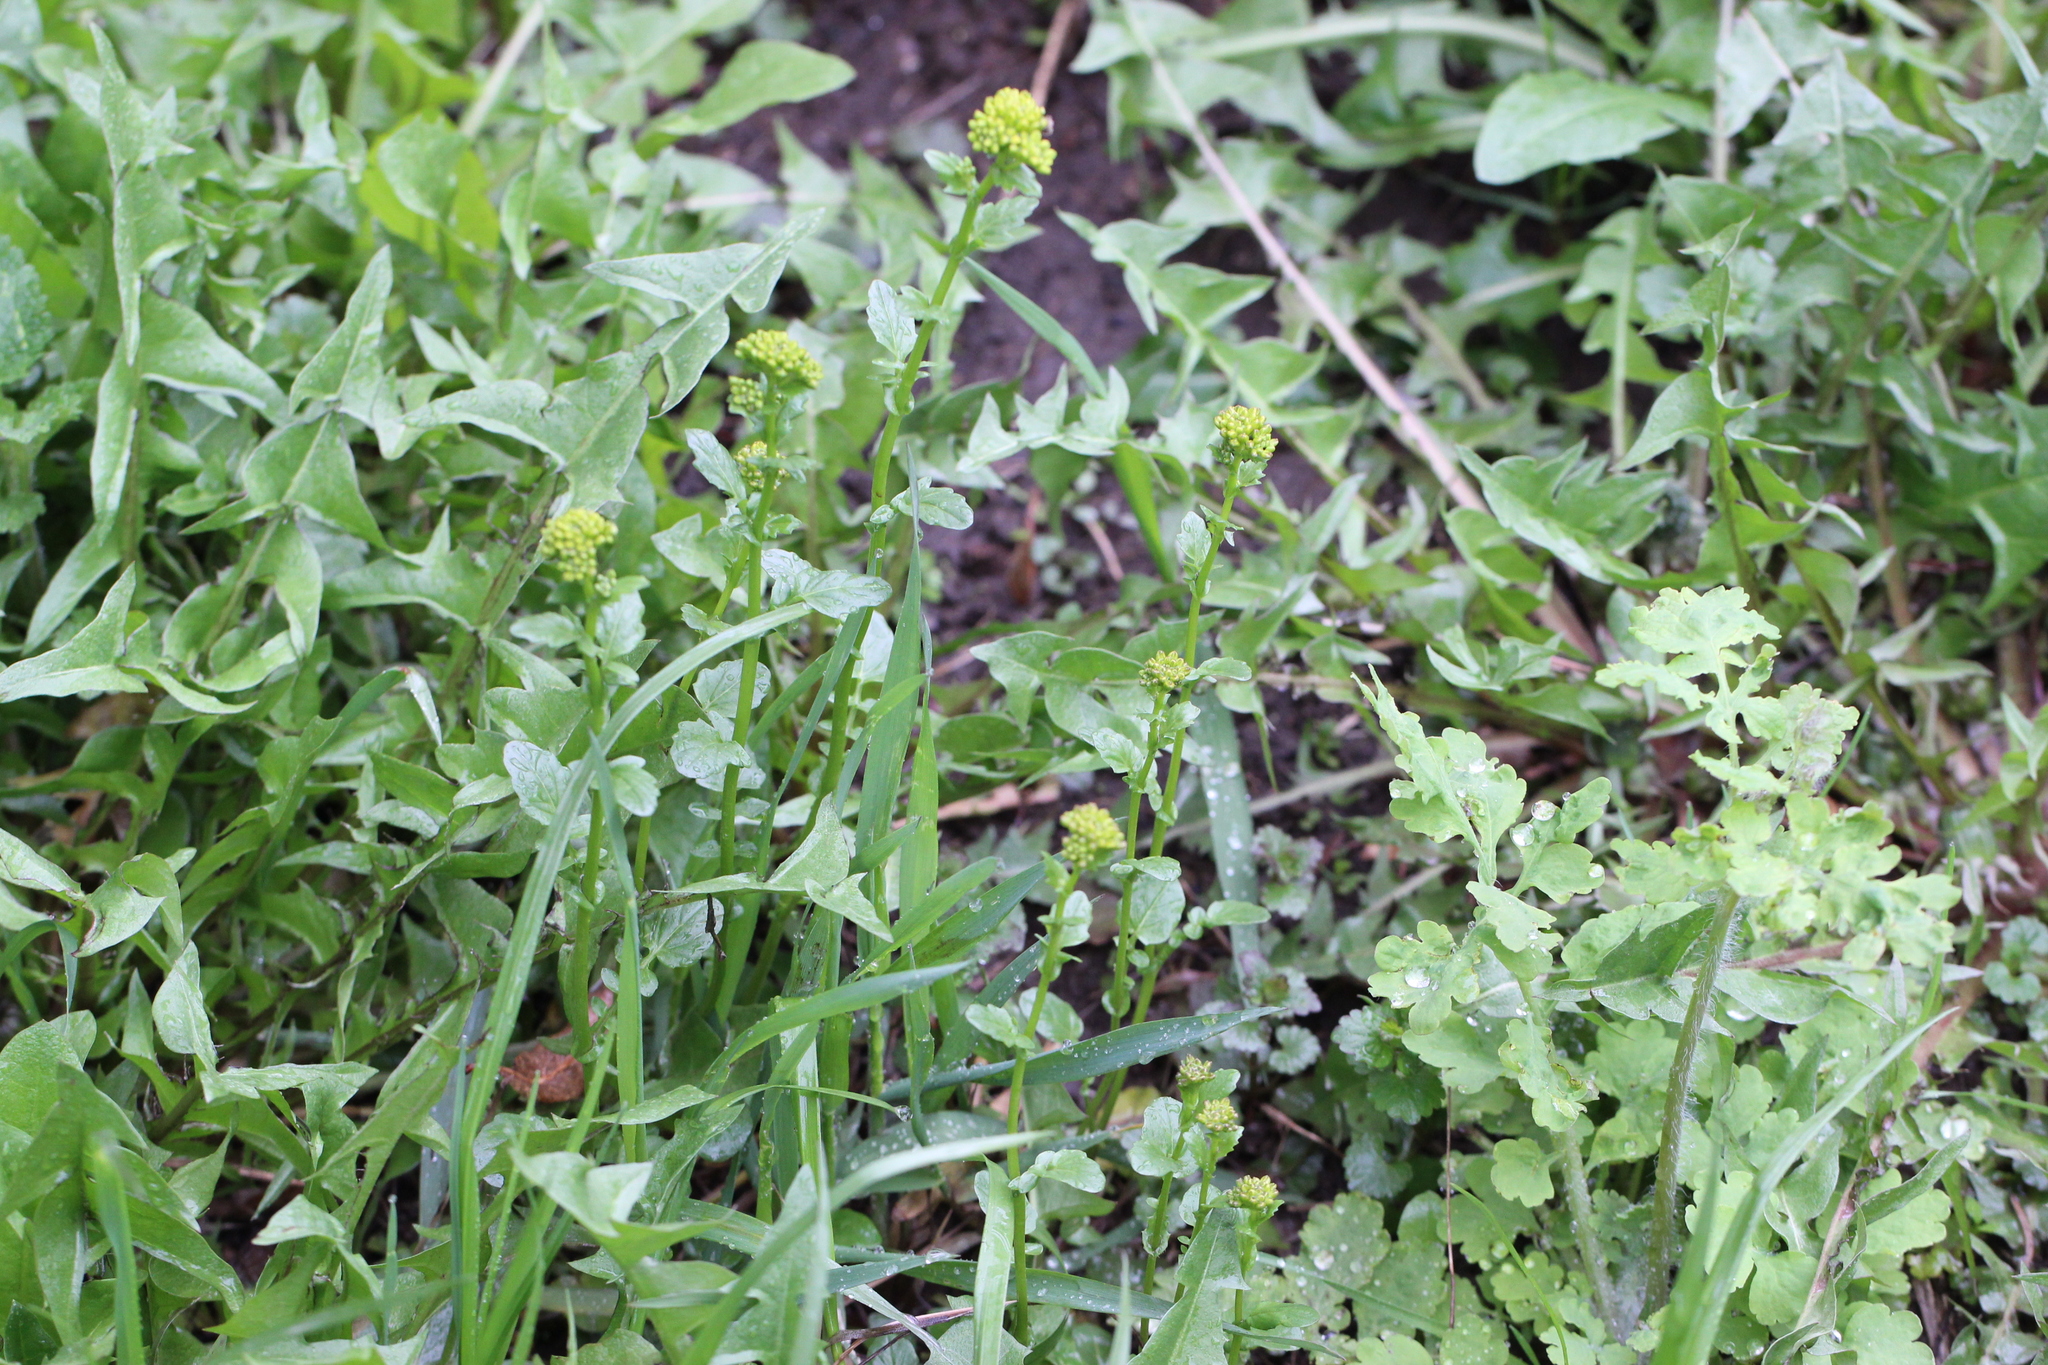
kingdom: Plantae
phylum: Tracheophyta
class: Magnoliopsida
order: Brassicales
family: Brassicaceae
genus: Barbarea
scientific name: Barbarea vulgaris
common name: Cressy-greens
